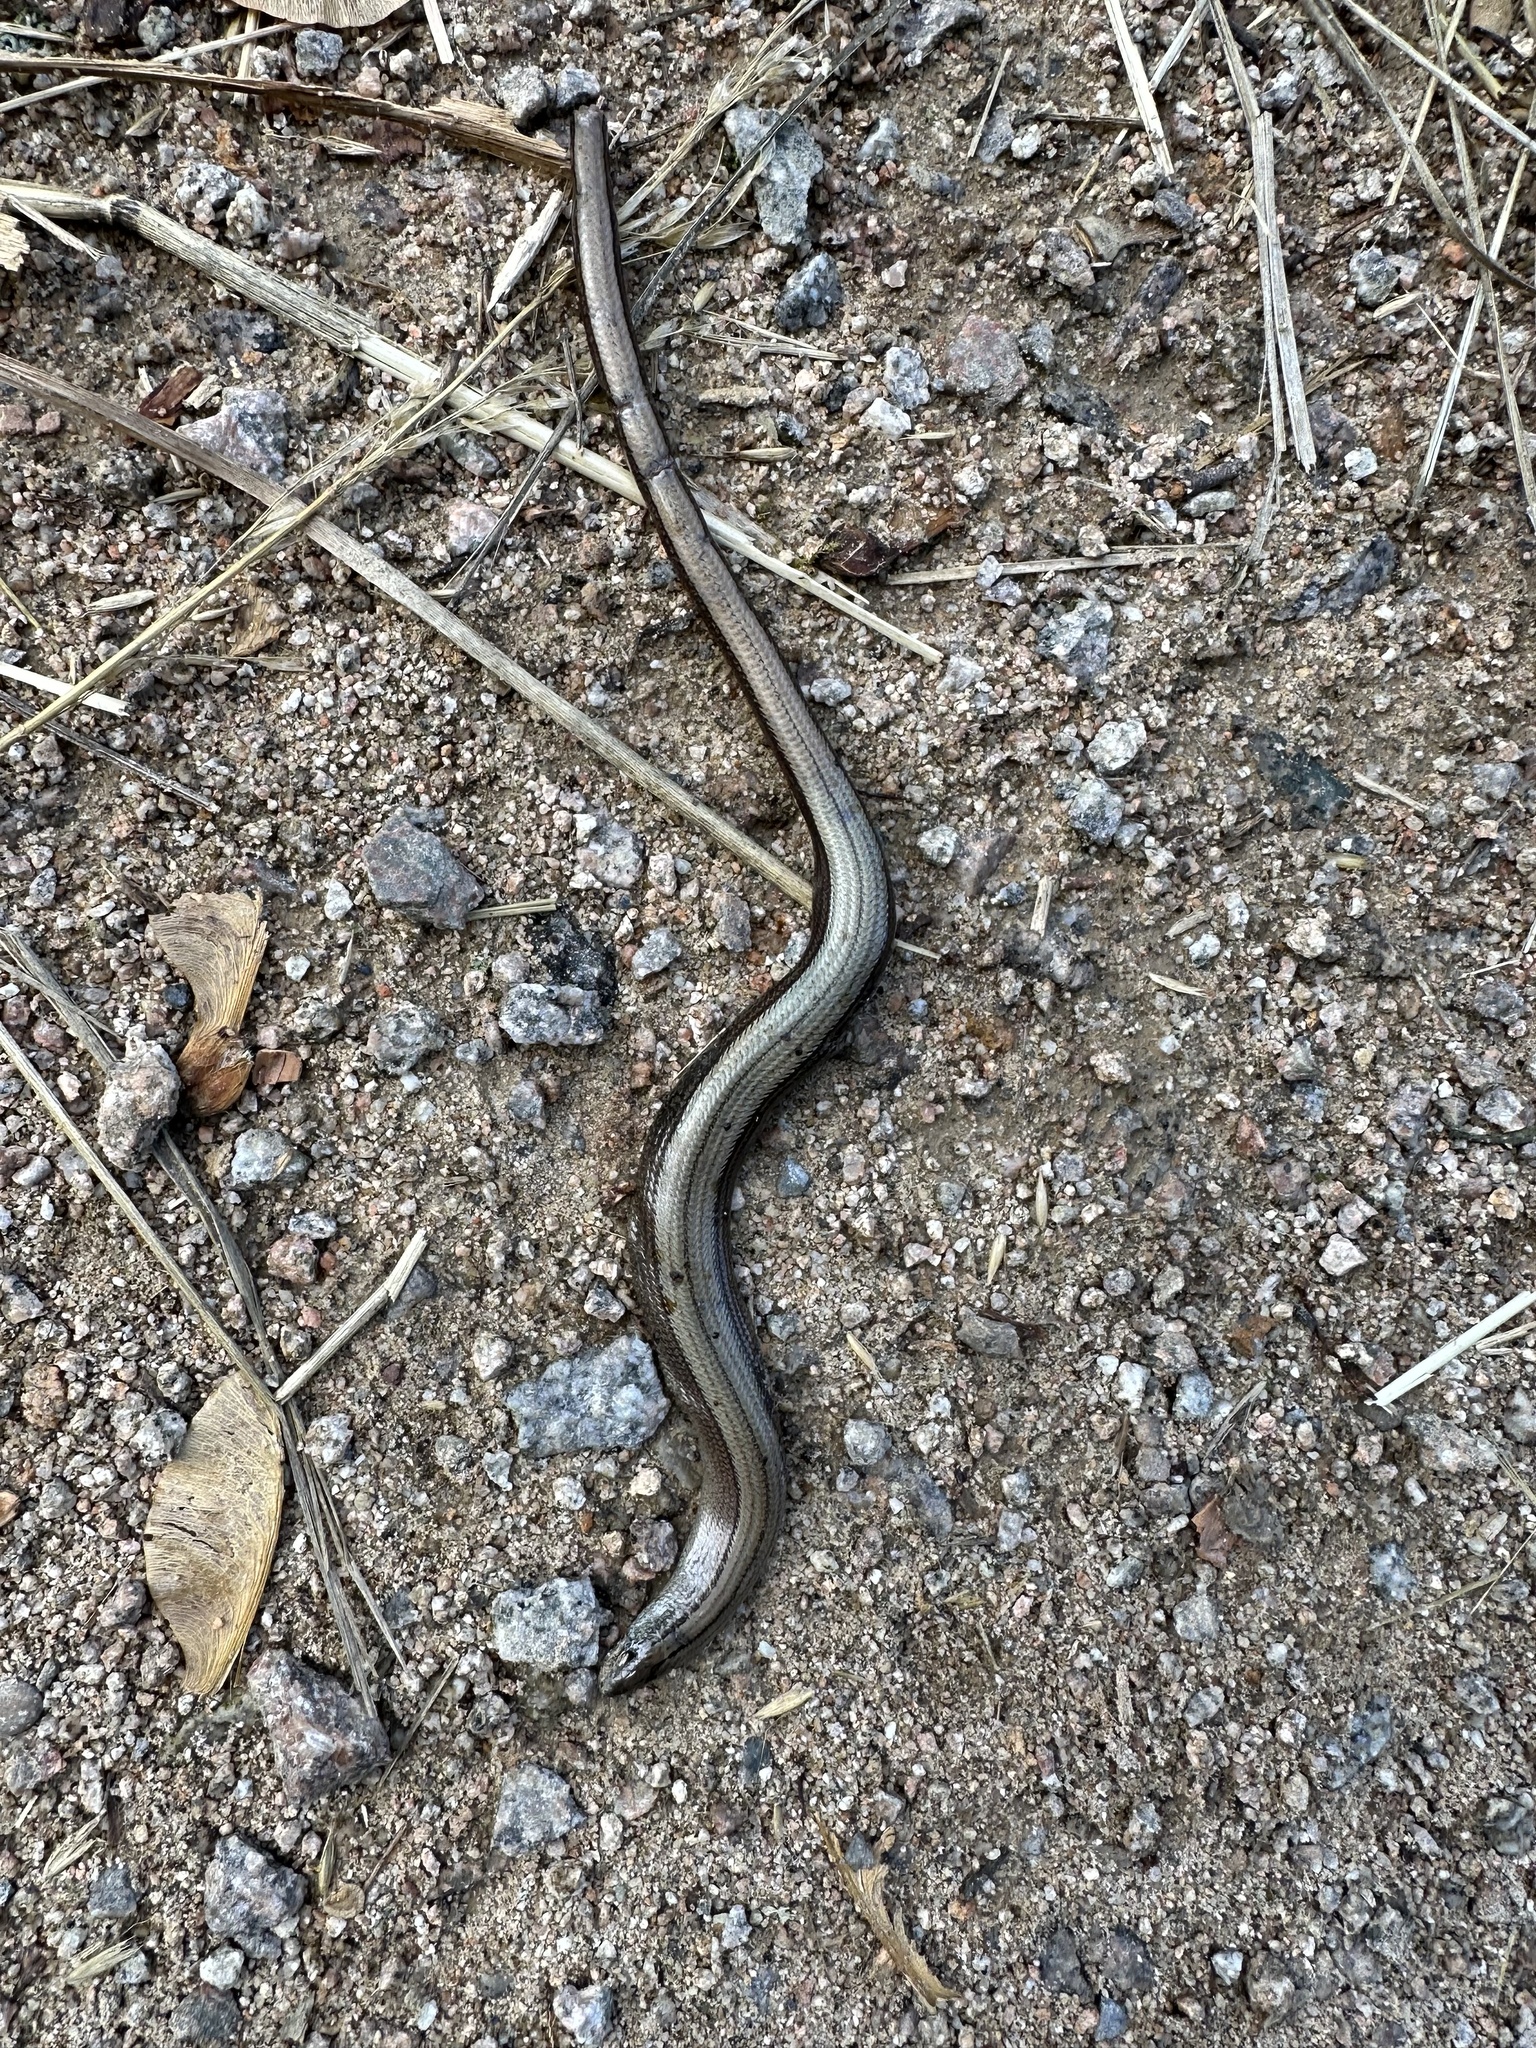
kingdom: Animalia
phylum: Chordata
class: Squamata
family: Anguidae
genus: Anguis
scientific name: Anguis fragilis
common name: Slow worm
